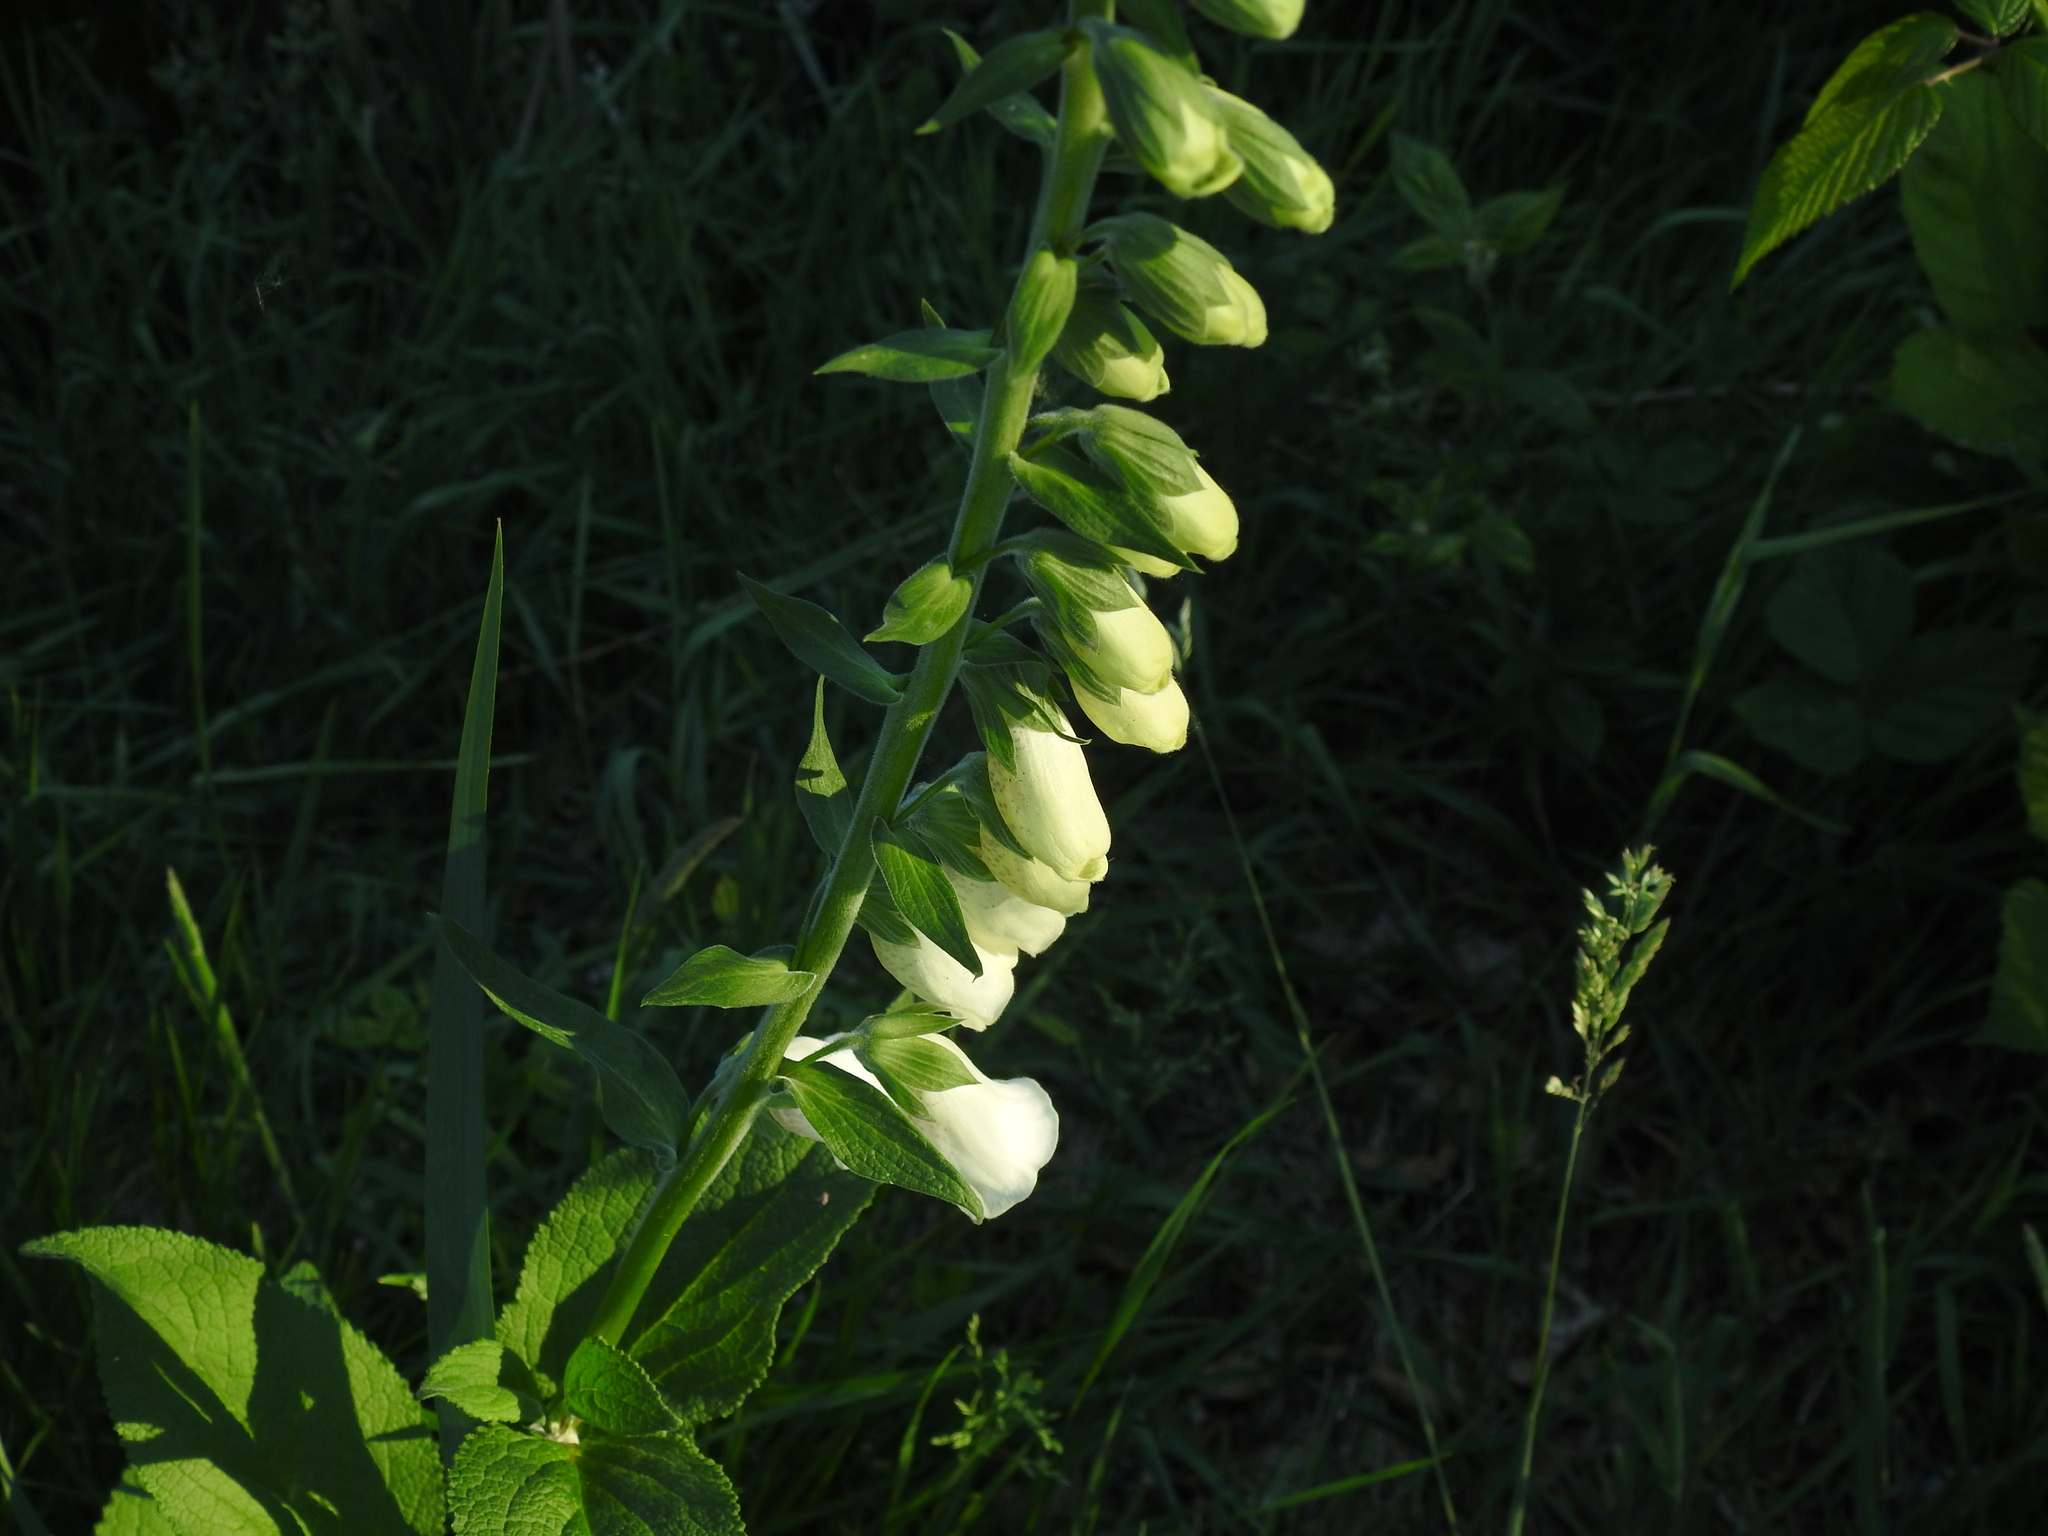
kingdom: Plantae
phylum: Tracheophyta
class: Magnoliopsida
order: Lamiales
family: Plantaginaceae
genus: Digitalis
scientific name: Digitalis purpurea
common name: Foxglove
